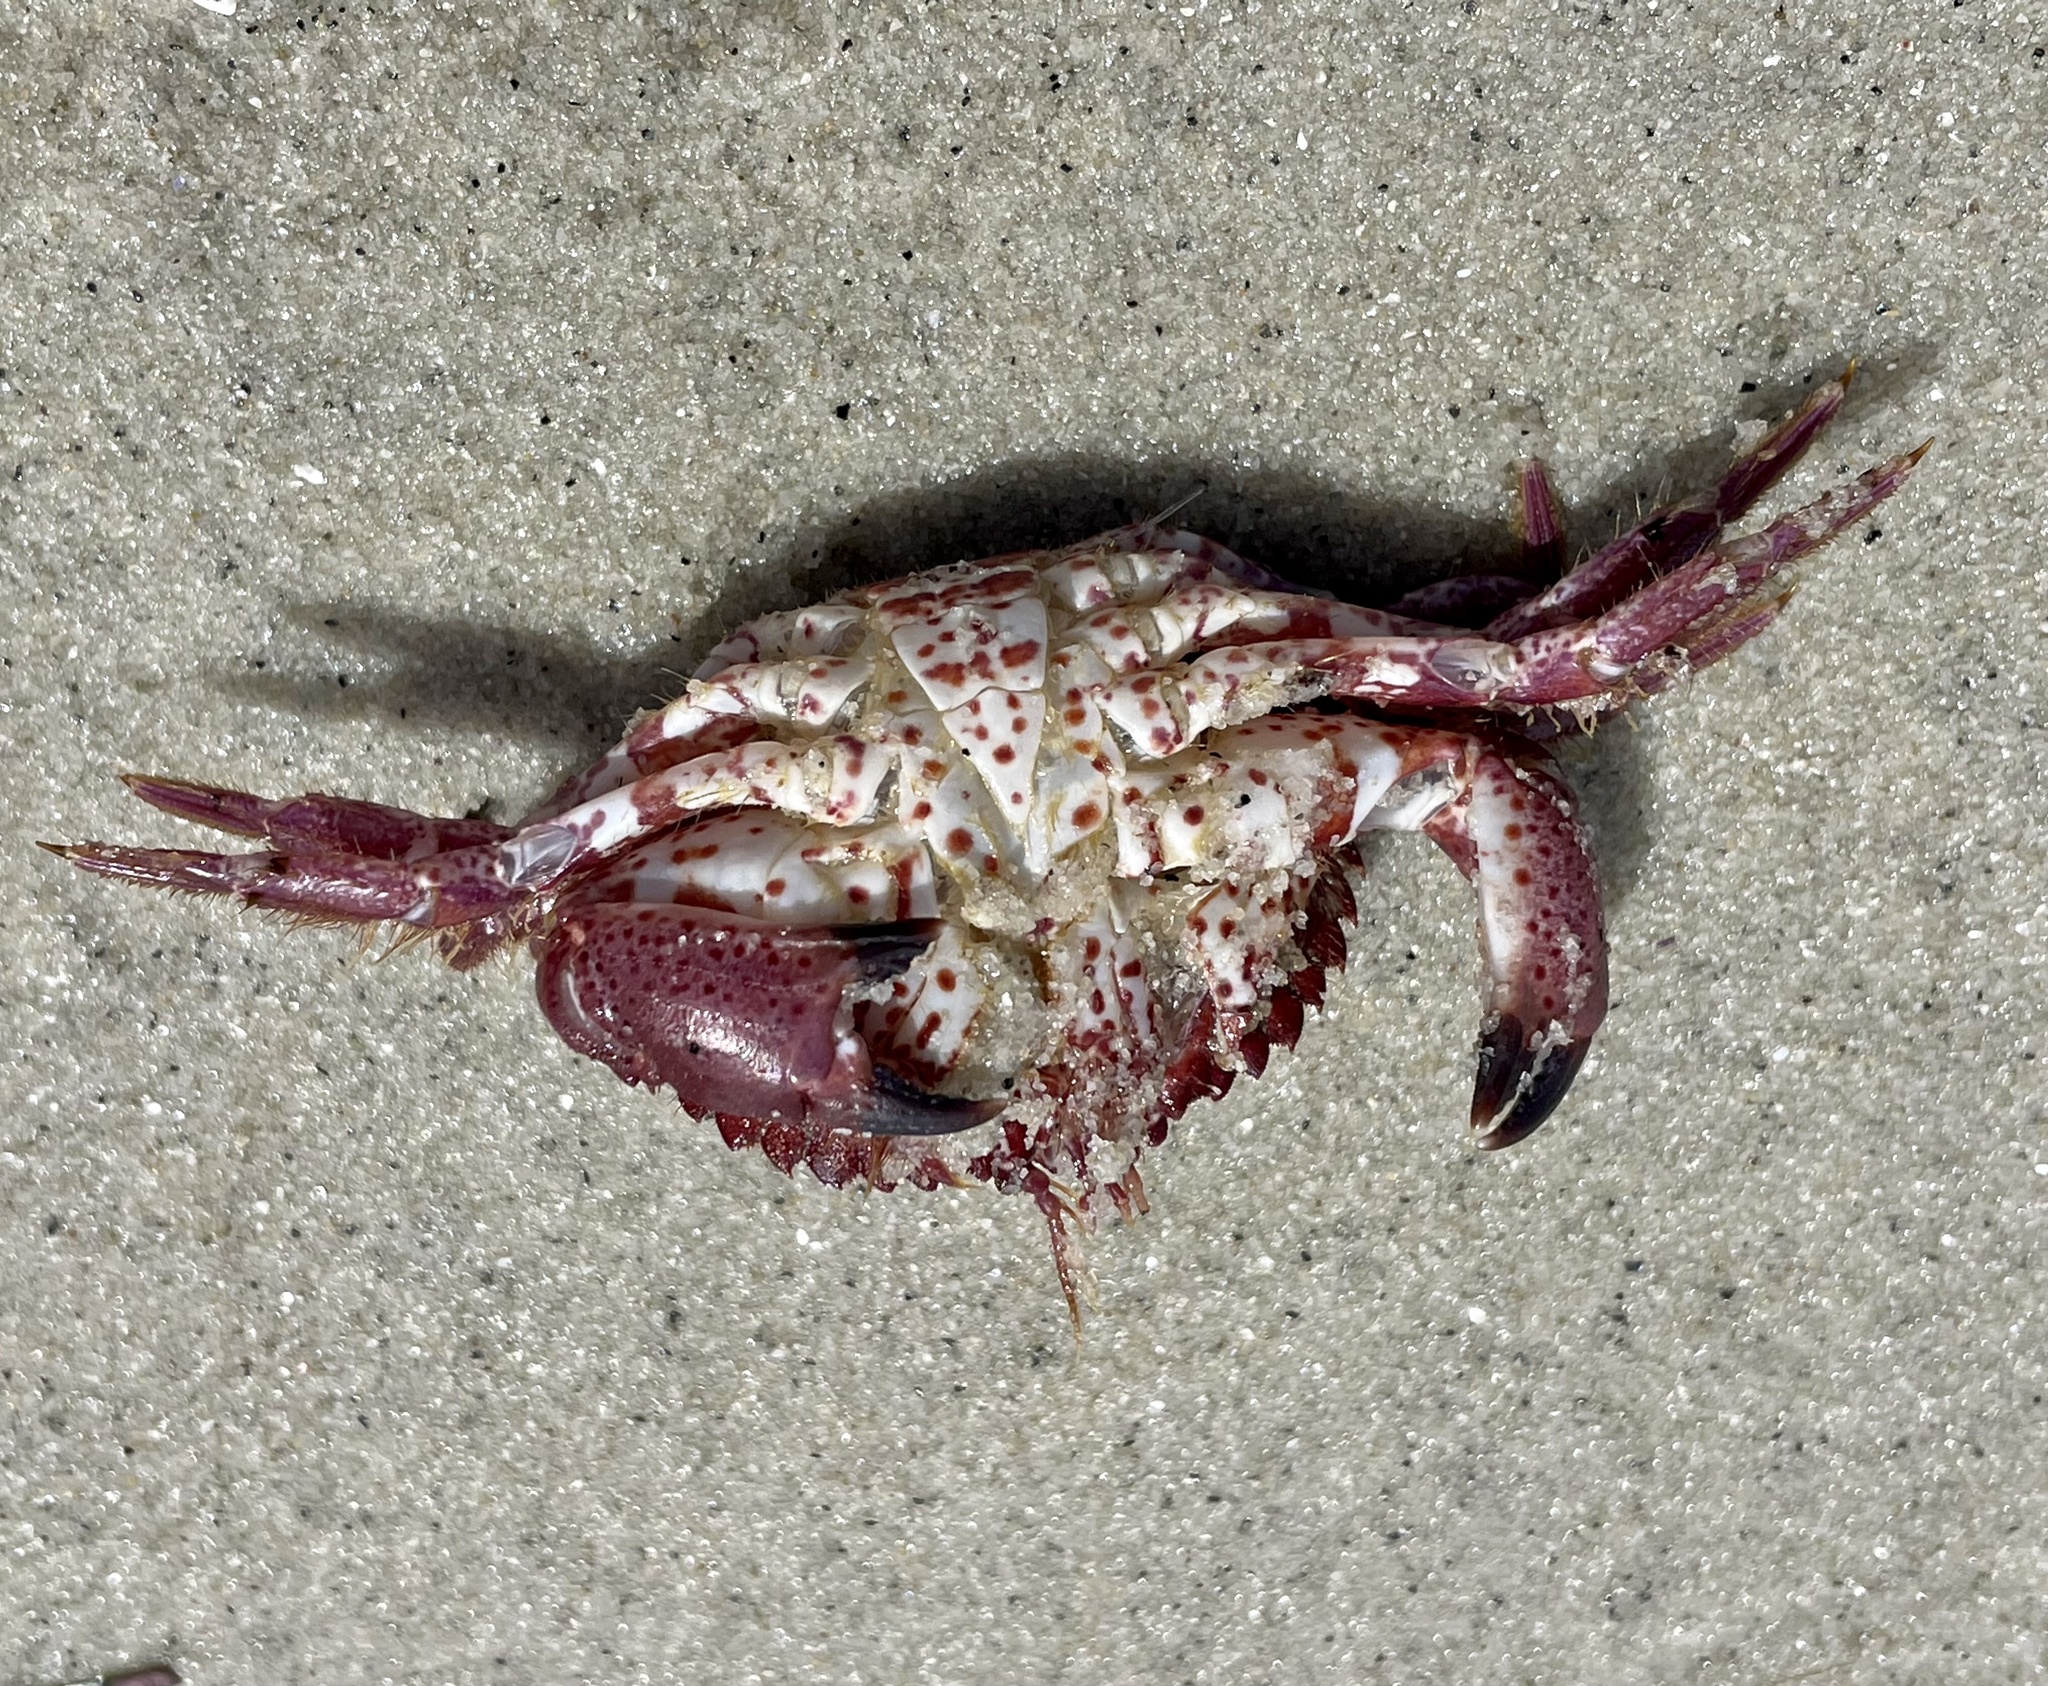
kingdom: Animalia
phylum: Arthropoda
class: Malacostraca
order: Decapoda
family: Cancridae
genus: Romaleon
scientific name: Romaleon antennarium
